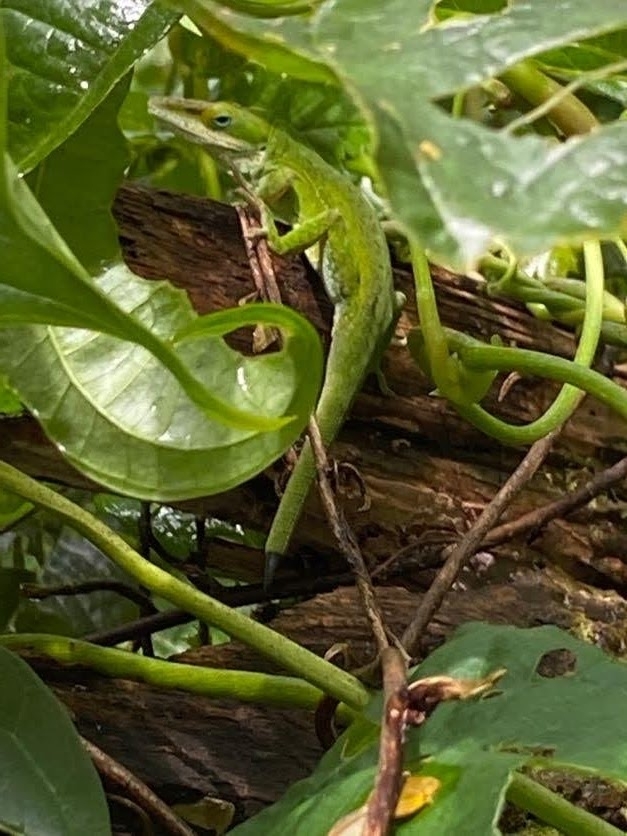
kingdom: Animalia
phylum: Chordata
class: Squamata
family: Dactyloidae
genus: Anolis
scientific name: Anolis carolinensis
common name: Green anole
